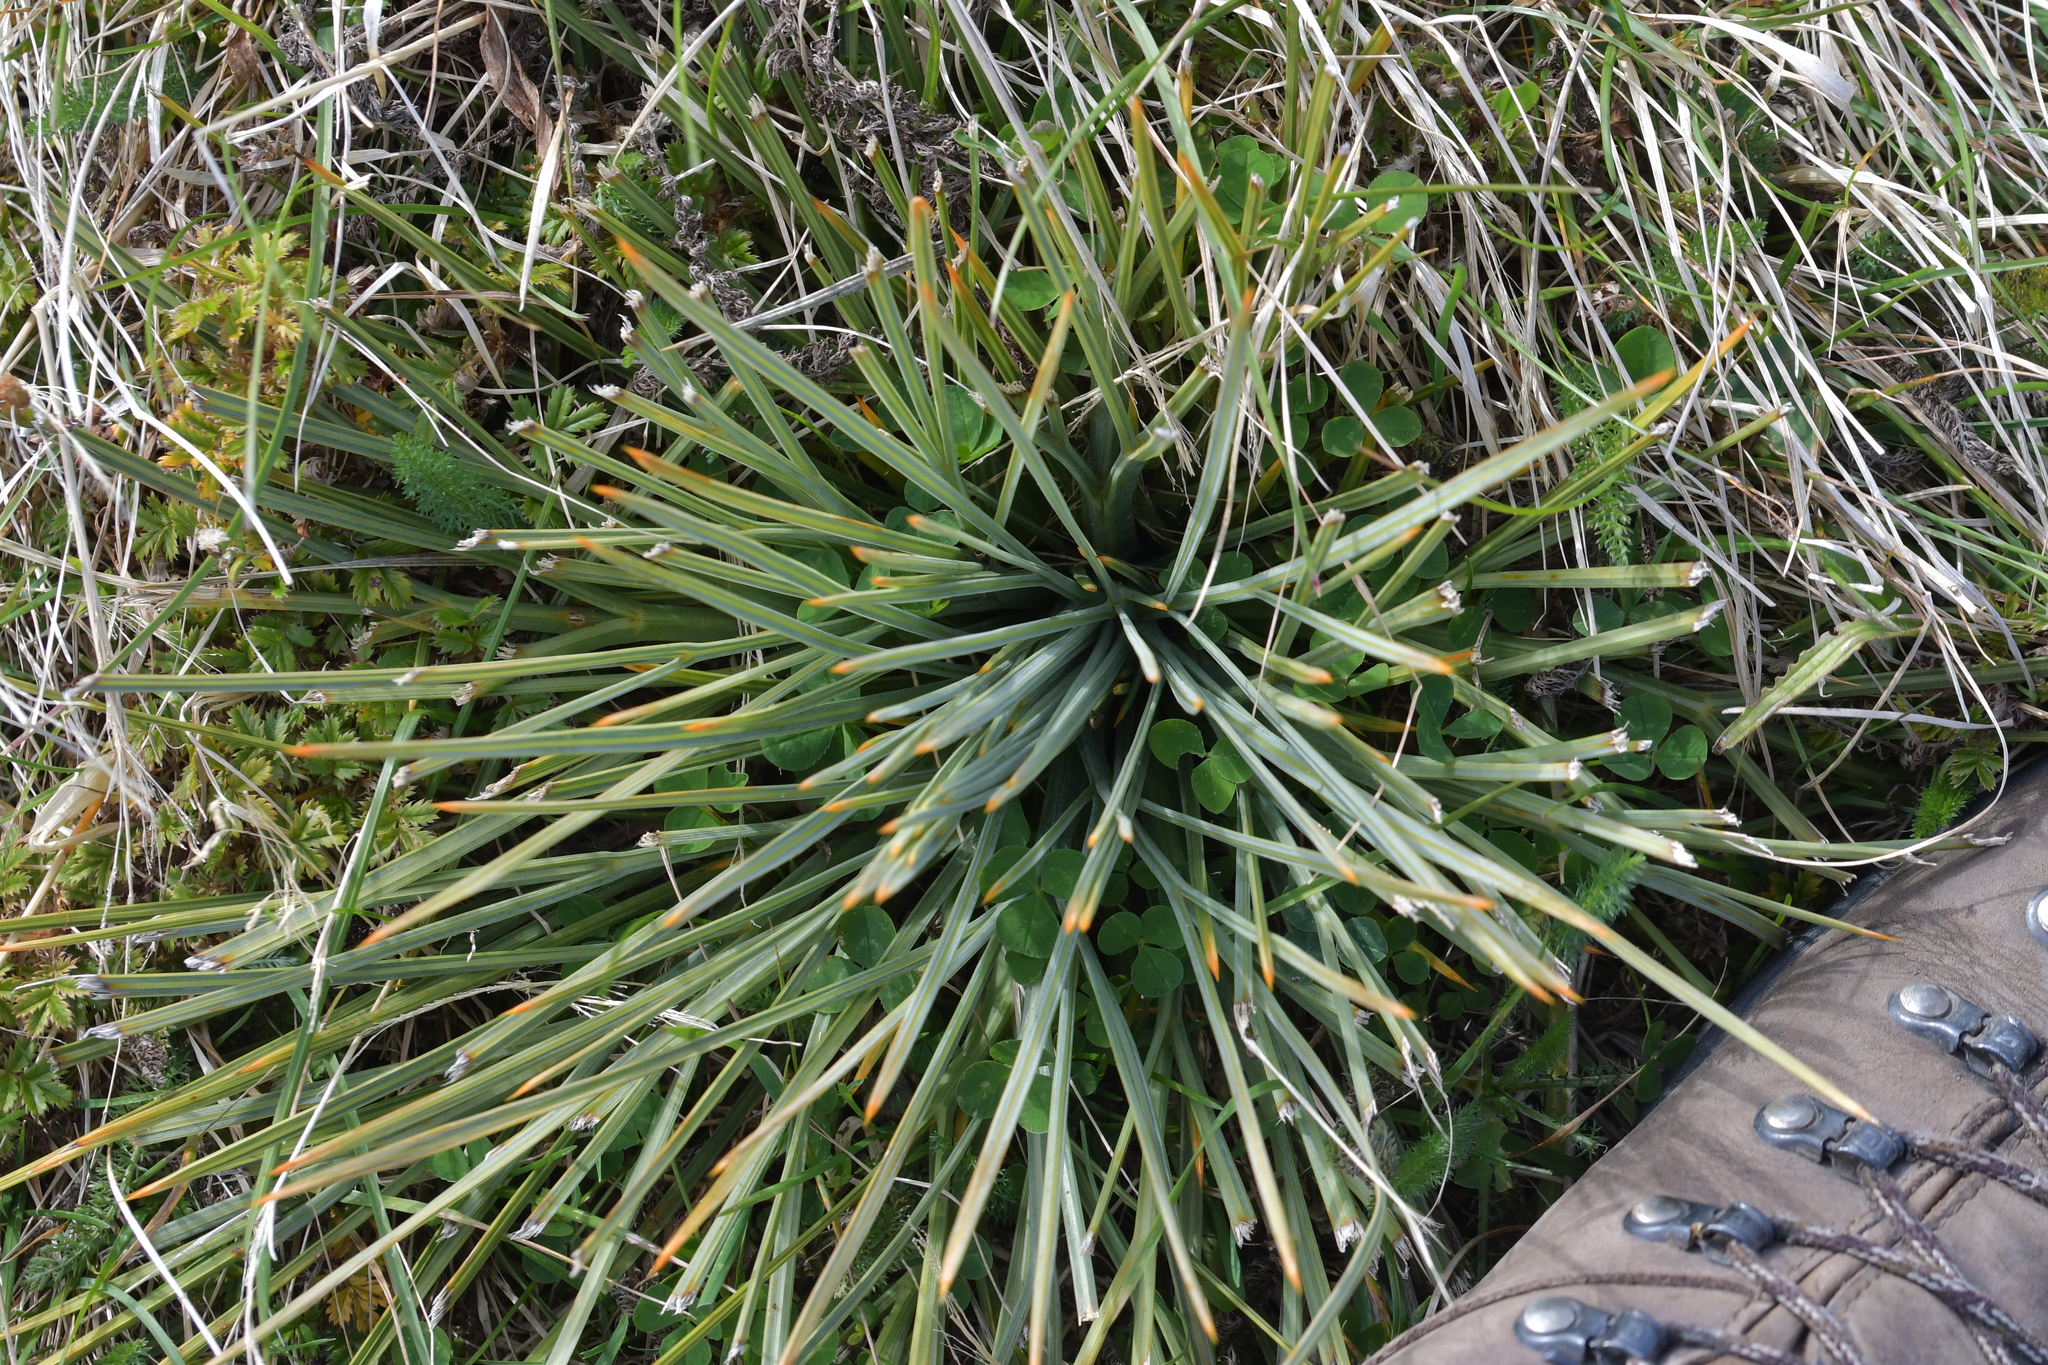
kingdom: Plantae
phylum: Tracheophyta
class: Magnoliopsida
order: Apiales
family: Apiaceae
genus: Aciphylla
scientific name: Aciphylla squarrosa
